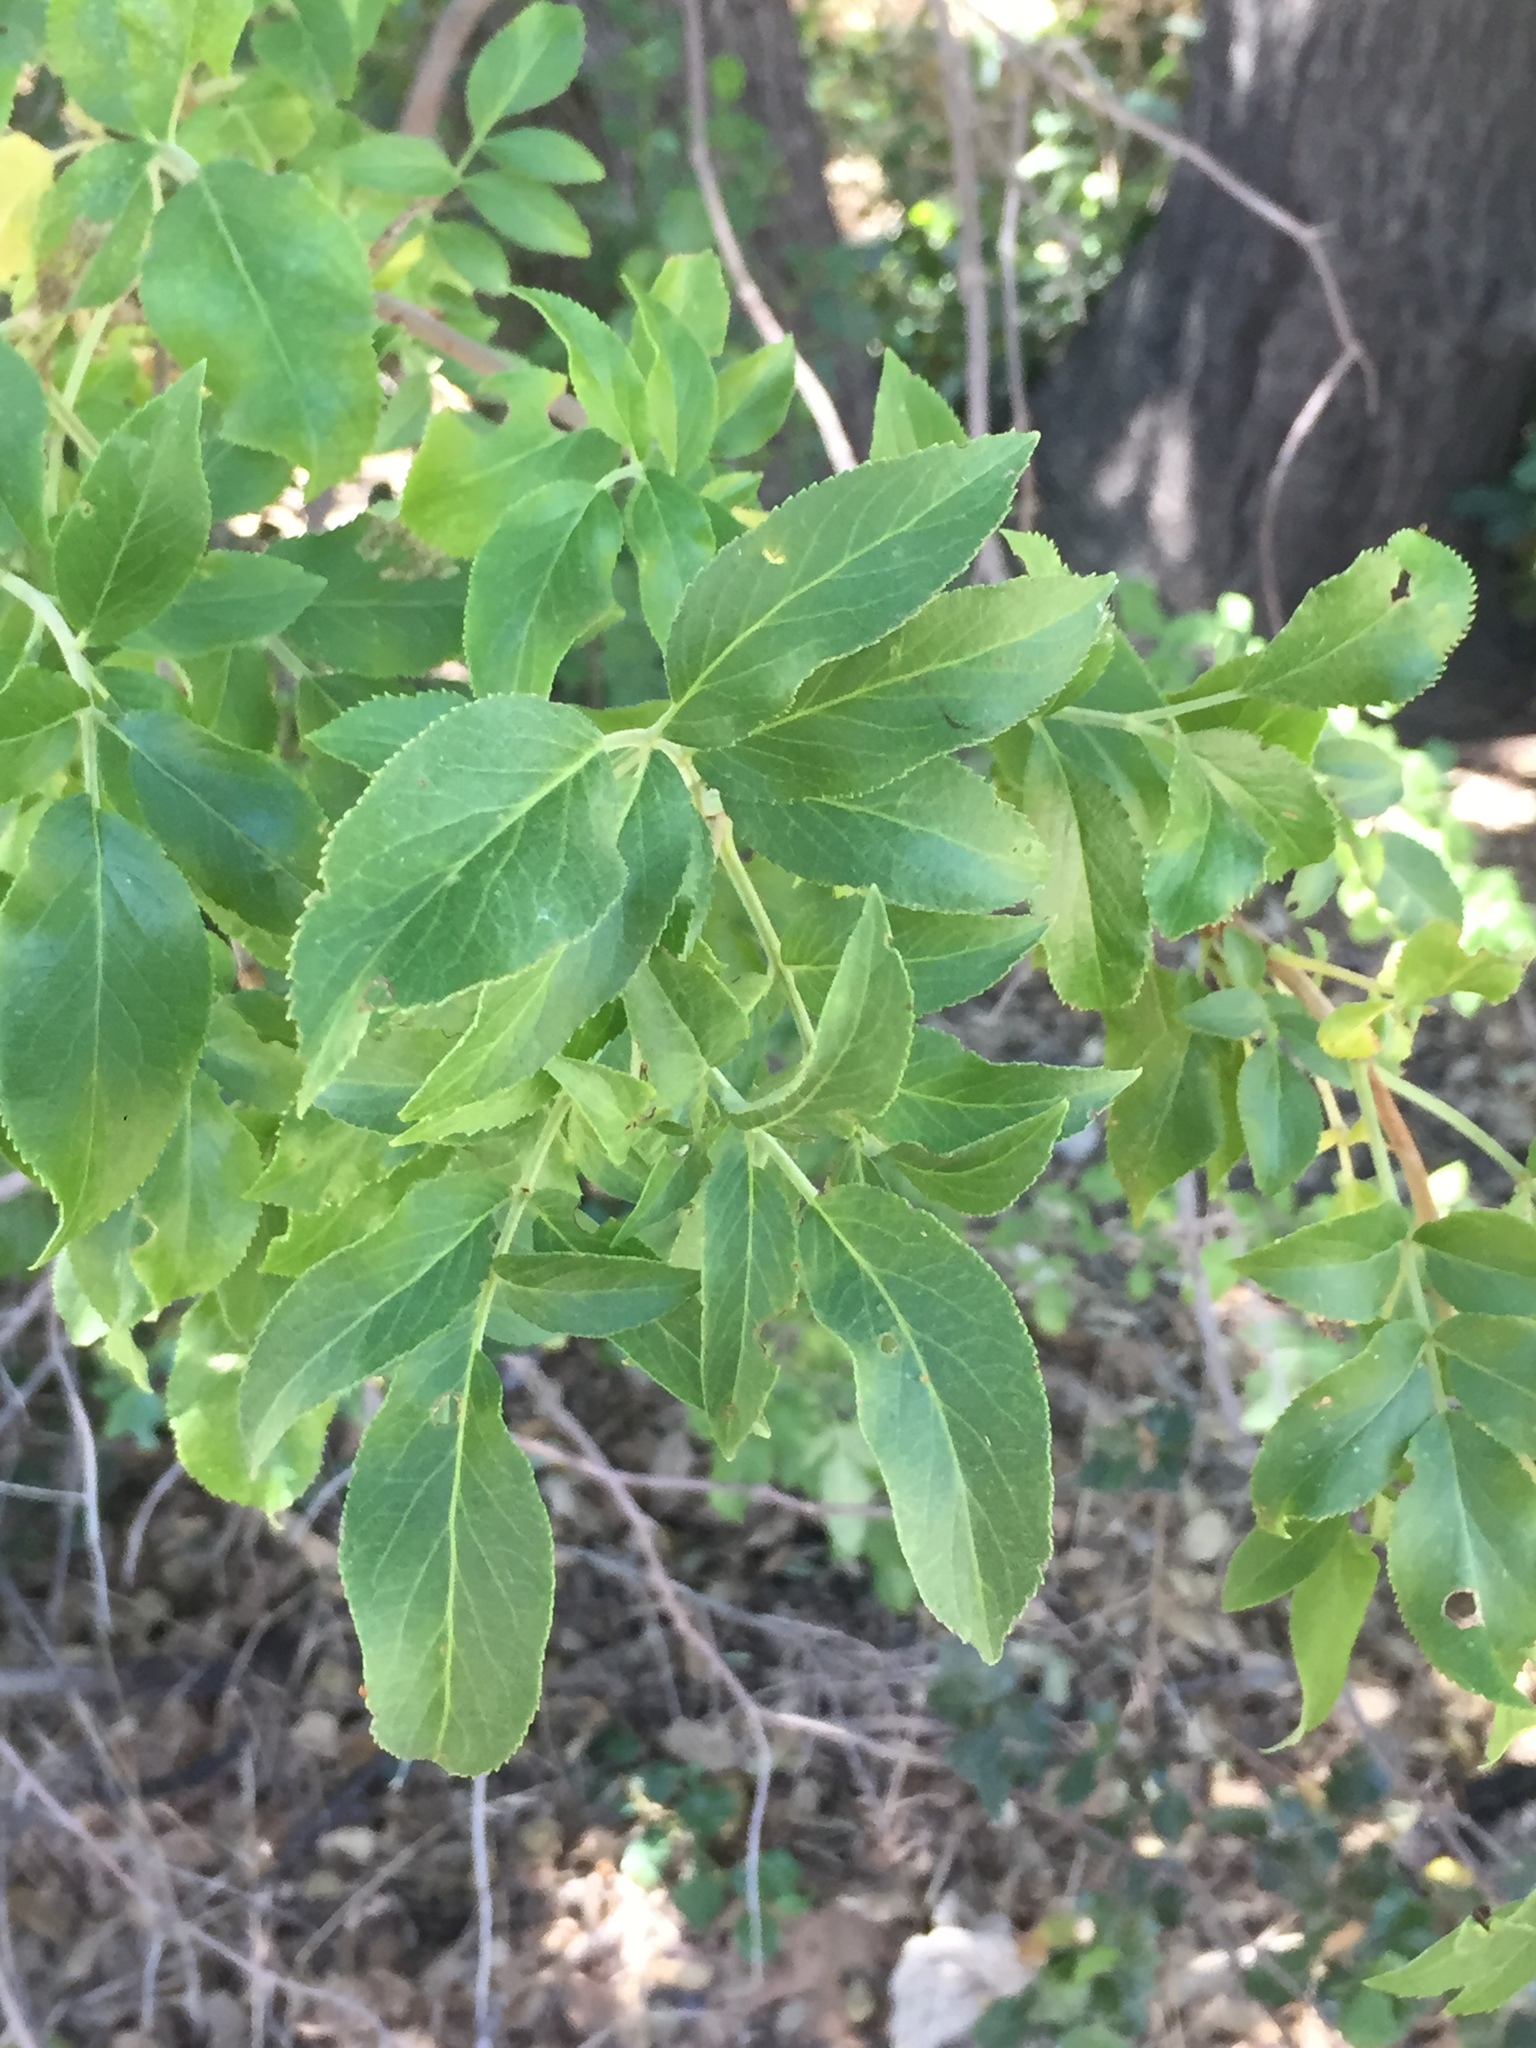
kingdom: Plantae
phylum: Tracheophyta
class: Magnoliopsida
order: Dipsacales
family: Viburnaceae
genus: Sambucus
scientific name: Sambucus cerulea
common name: Blue elder
